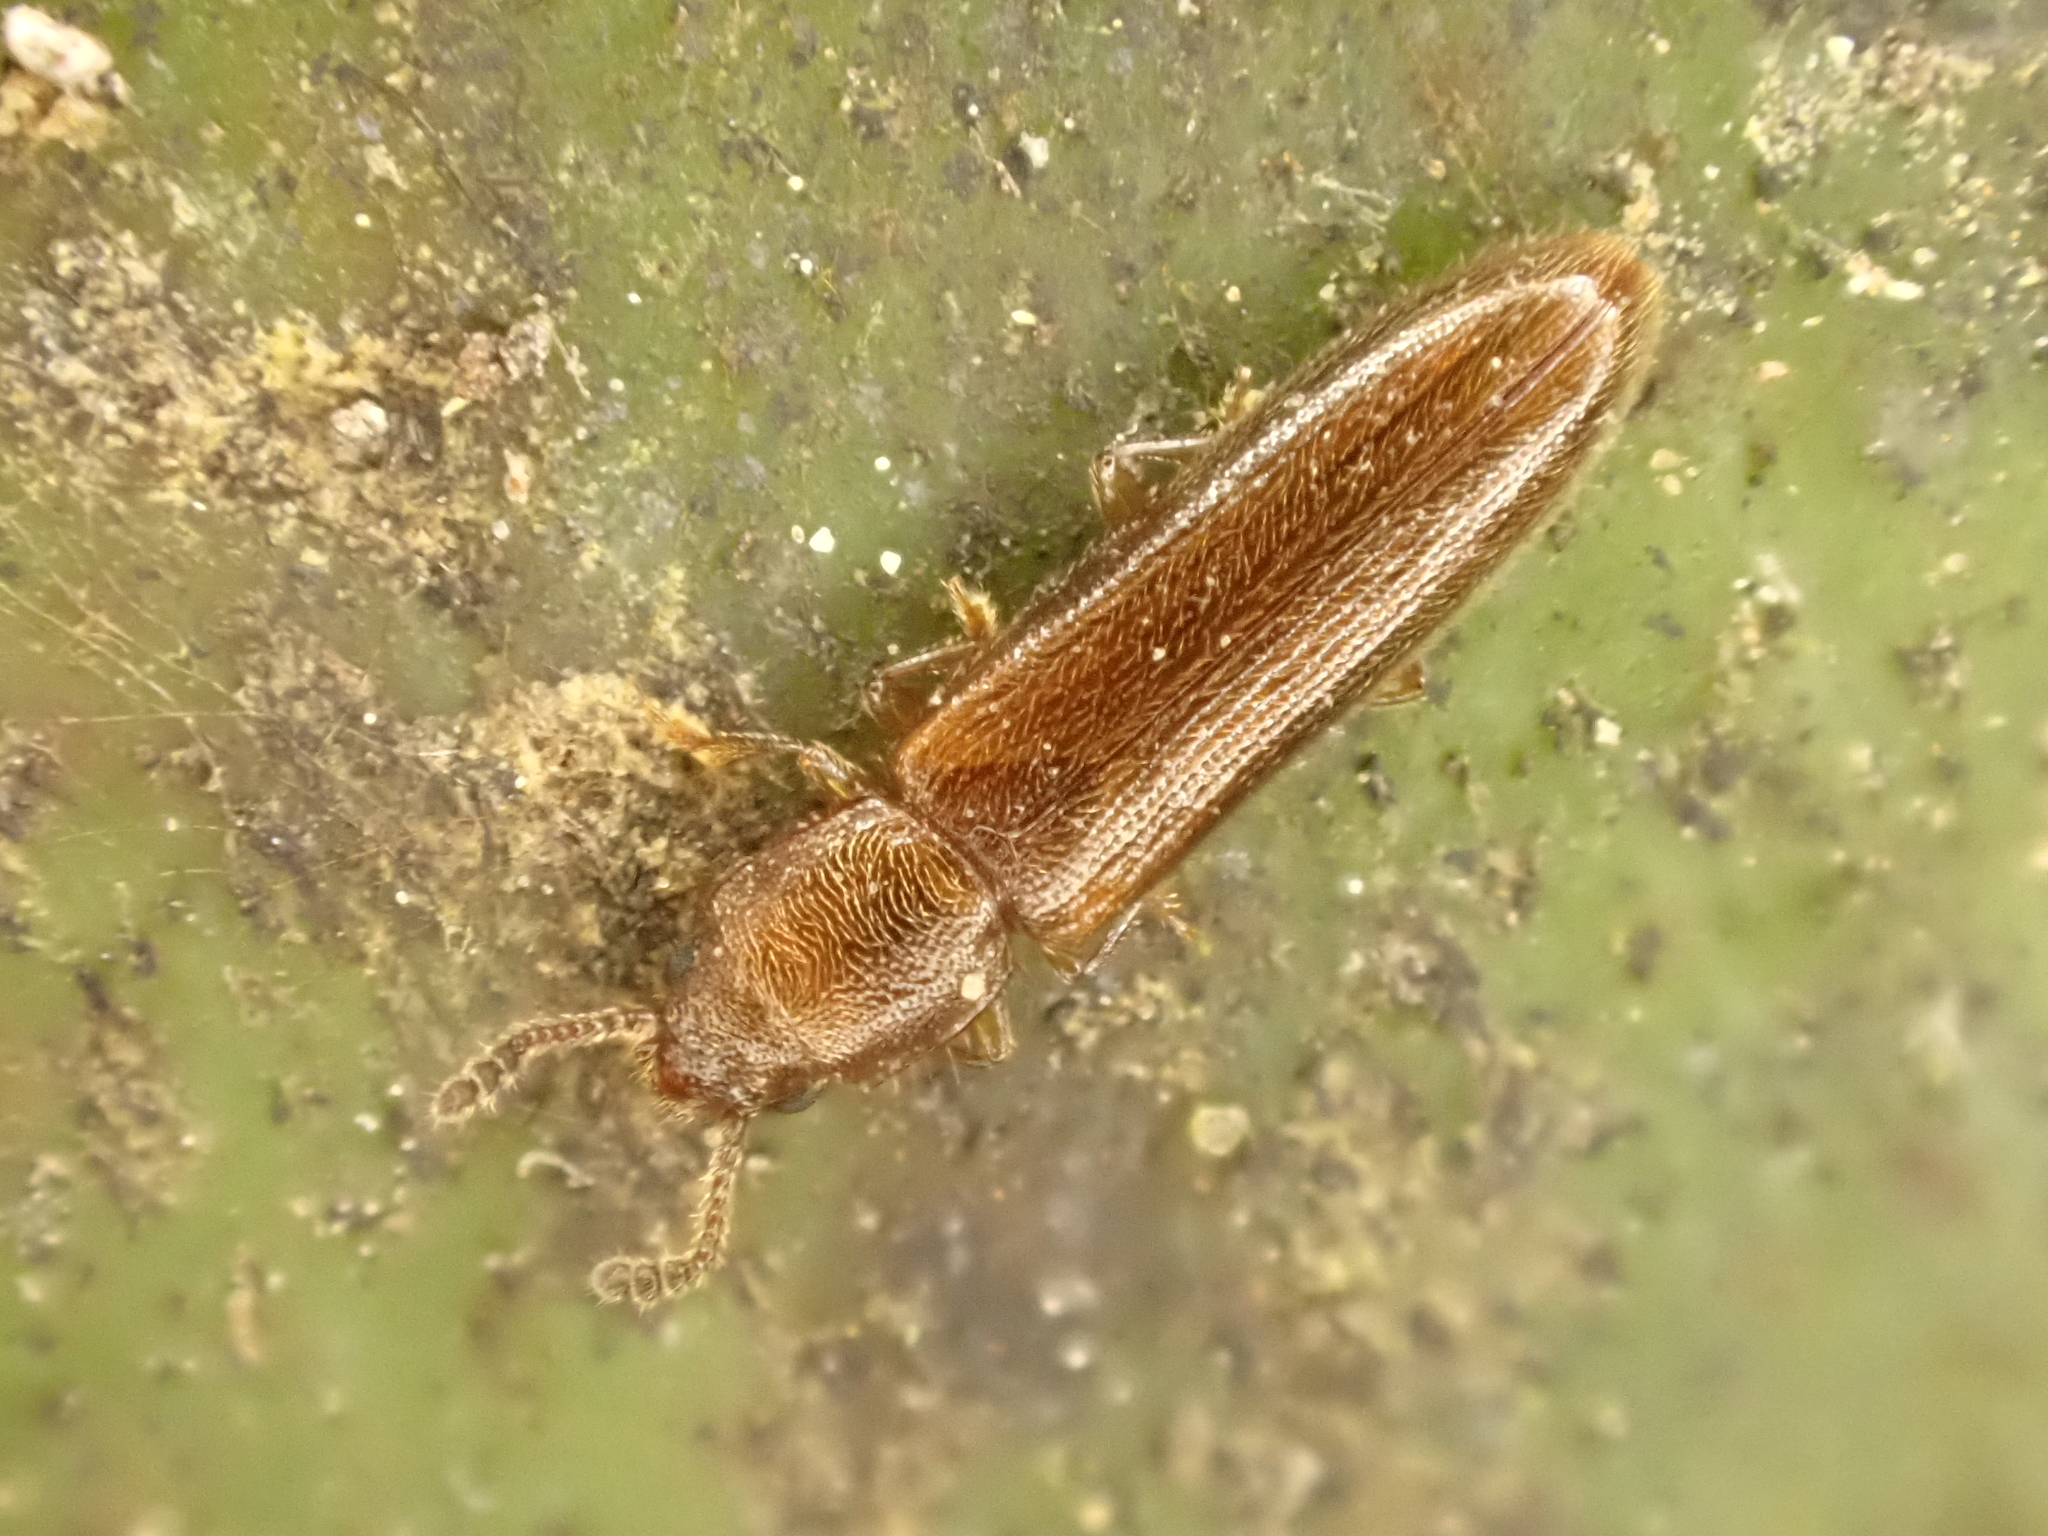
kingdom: Animalia
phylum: Arthropoda
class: Insecta
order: Coleoptera
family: Erotylidae
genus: Hapalips
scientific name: Hapalips prolixus
